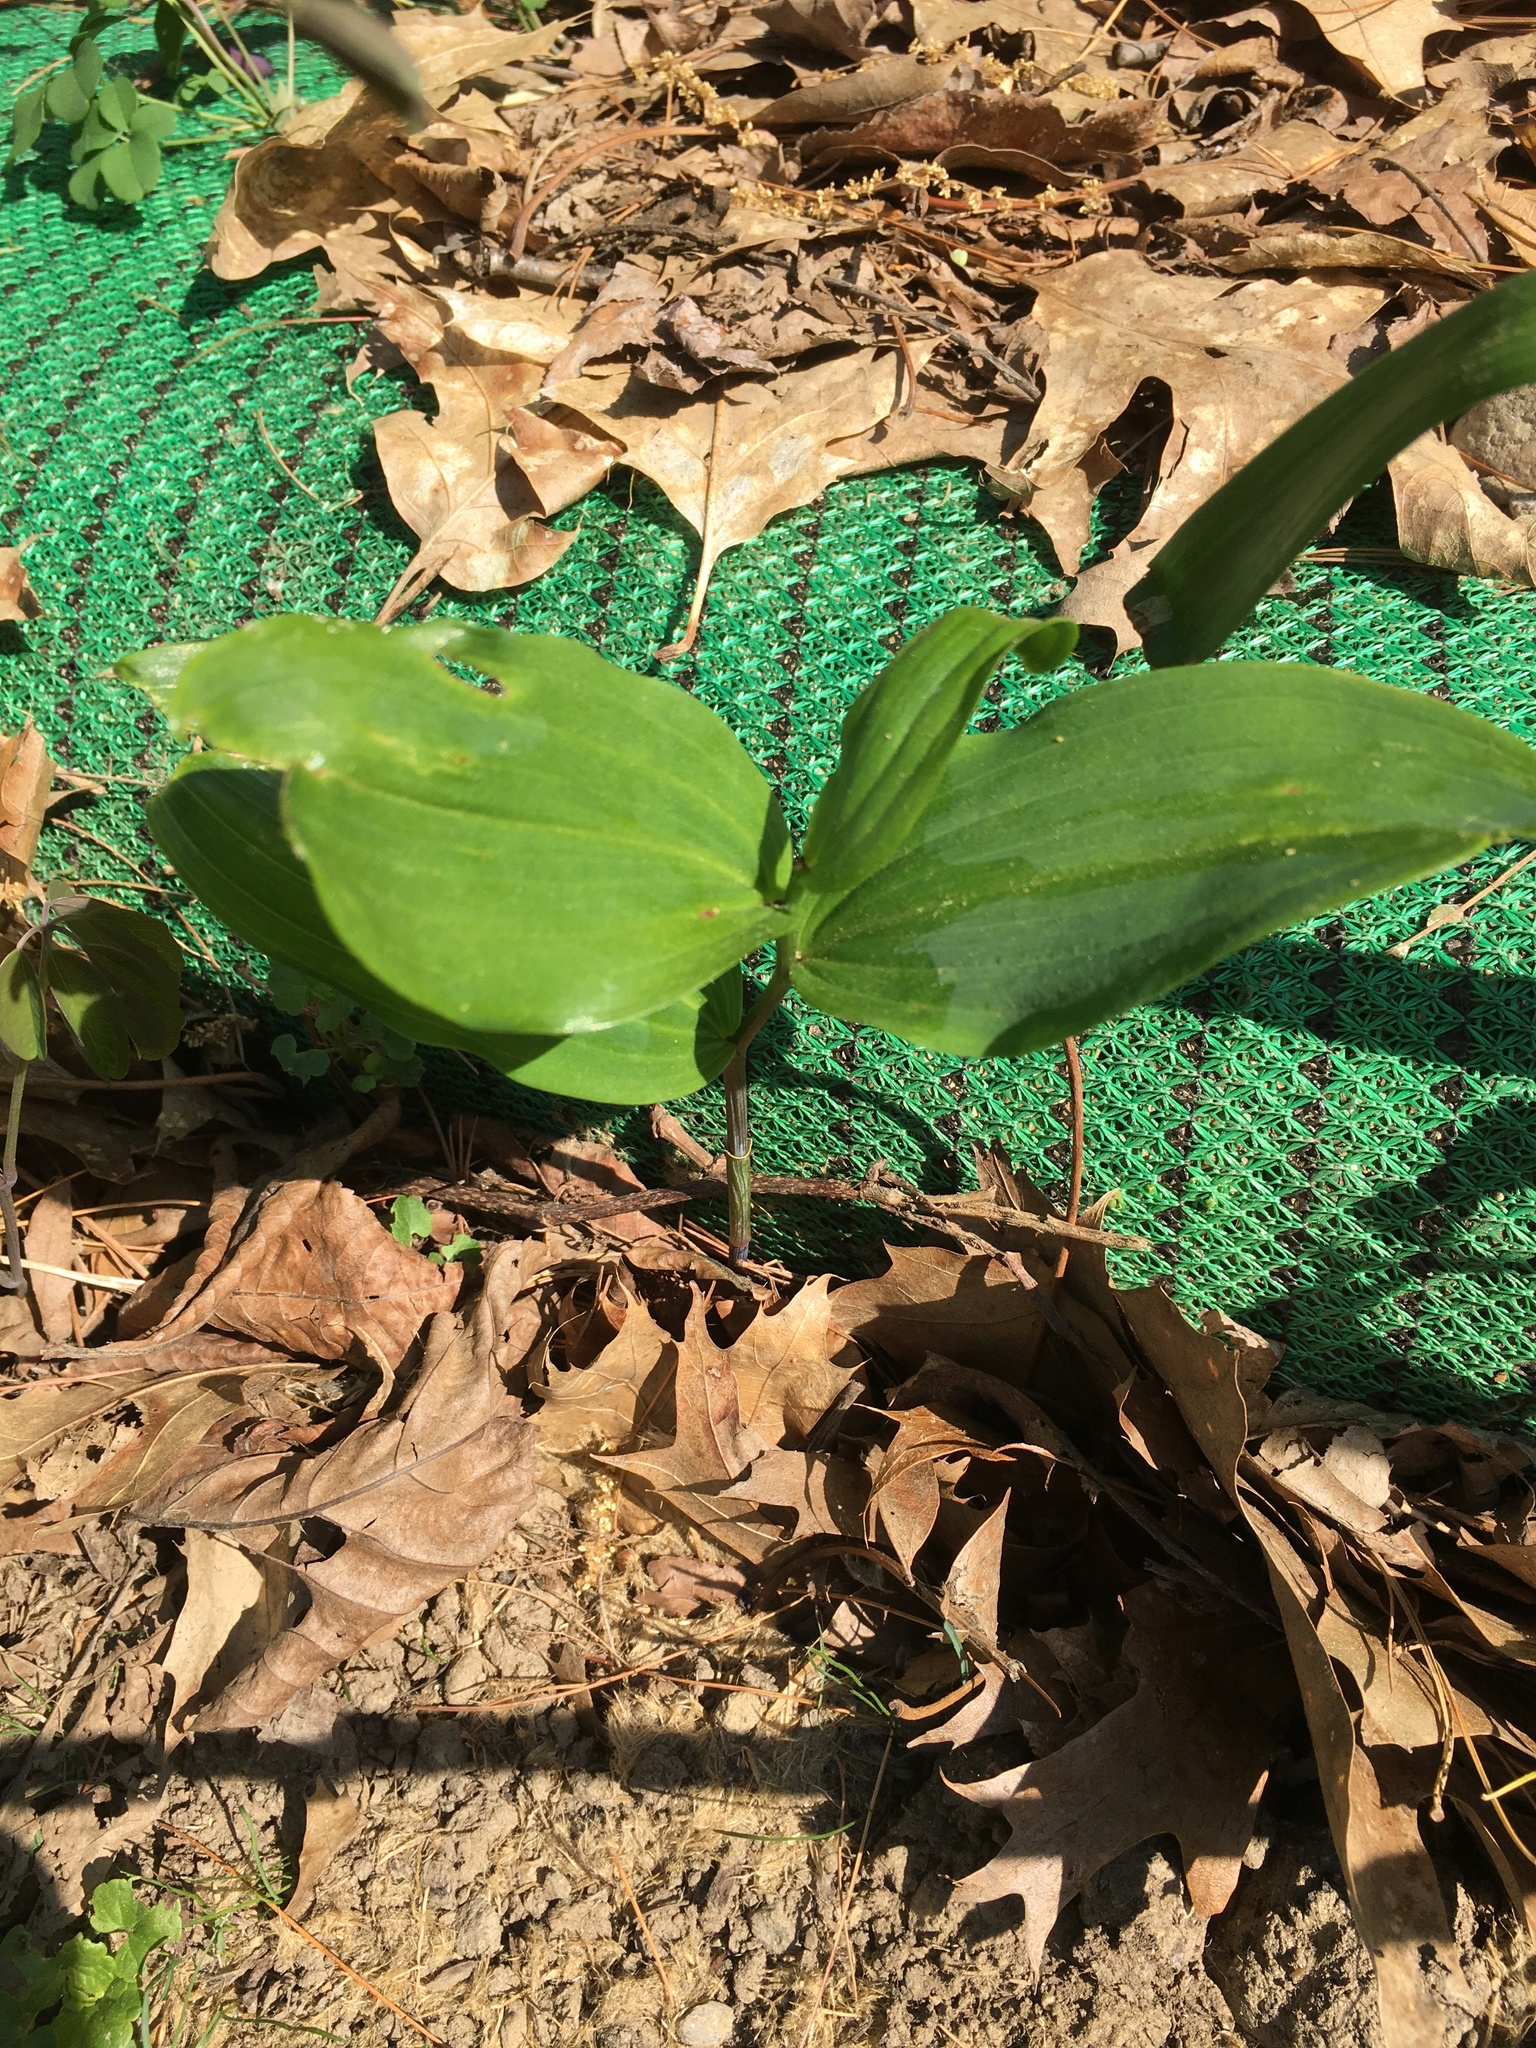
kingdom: Plantae
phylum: Tracheophyta
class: Liliopsida
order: Asparagales
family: Orchidaceae
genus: Epipactis
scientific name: Epipactis helleborine
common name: Broad-leaved helleborine
